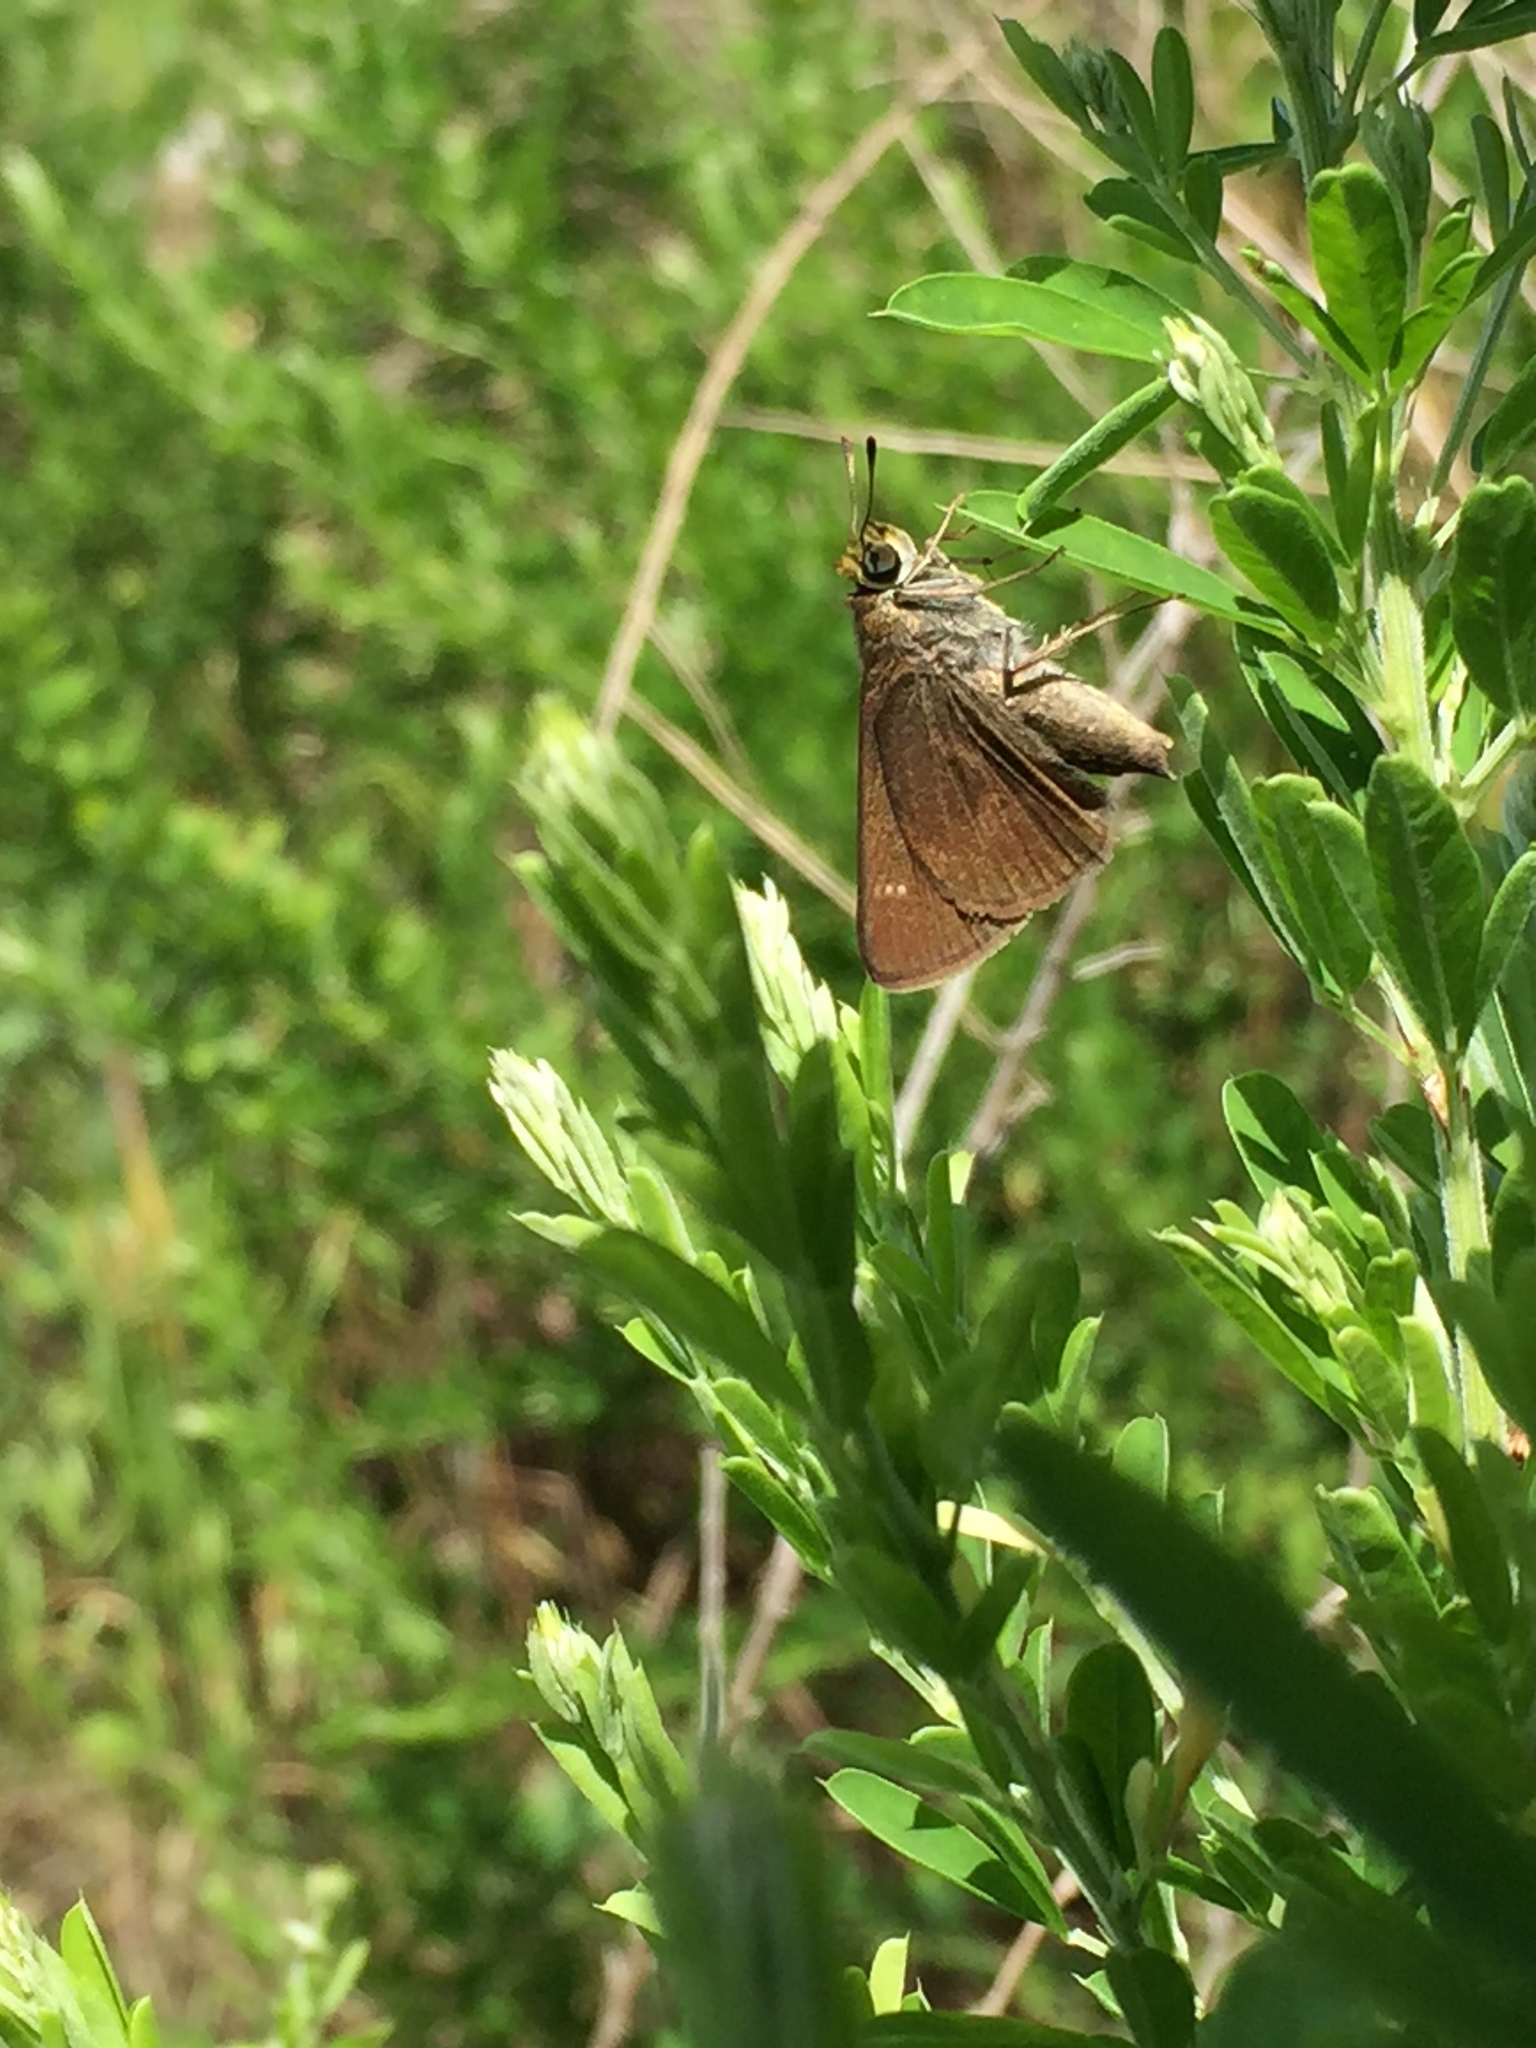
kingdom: Animalia
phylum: Arthropoda
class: Insecta
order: Lepidoptera
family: Hesperiidae
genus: Euphyes
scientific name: Euphyes vestris
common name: Dun skipper
